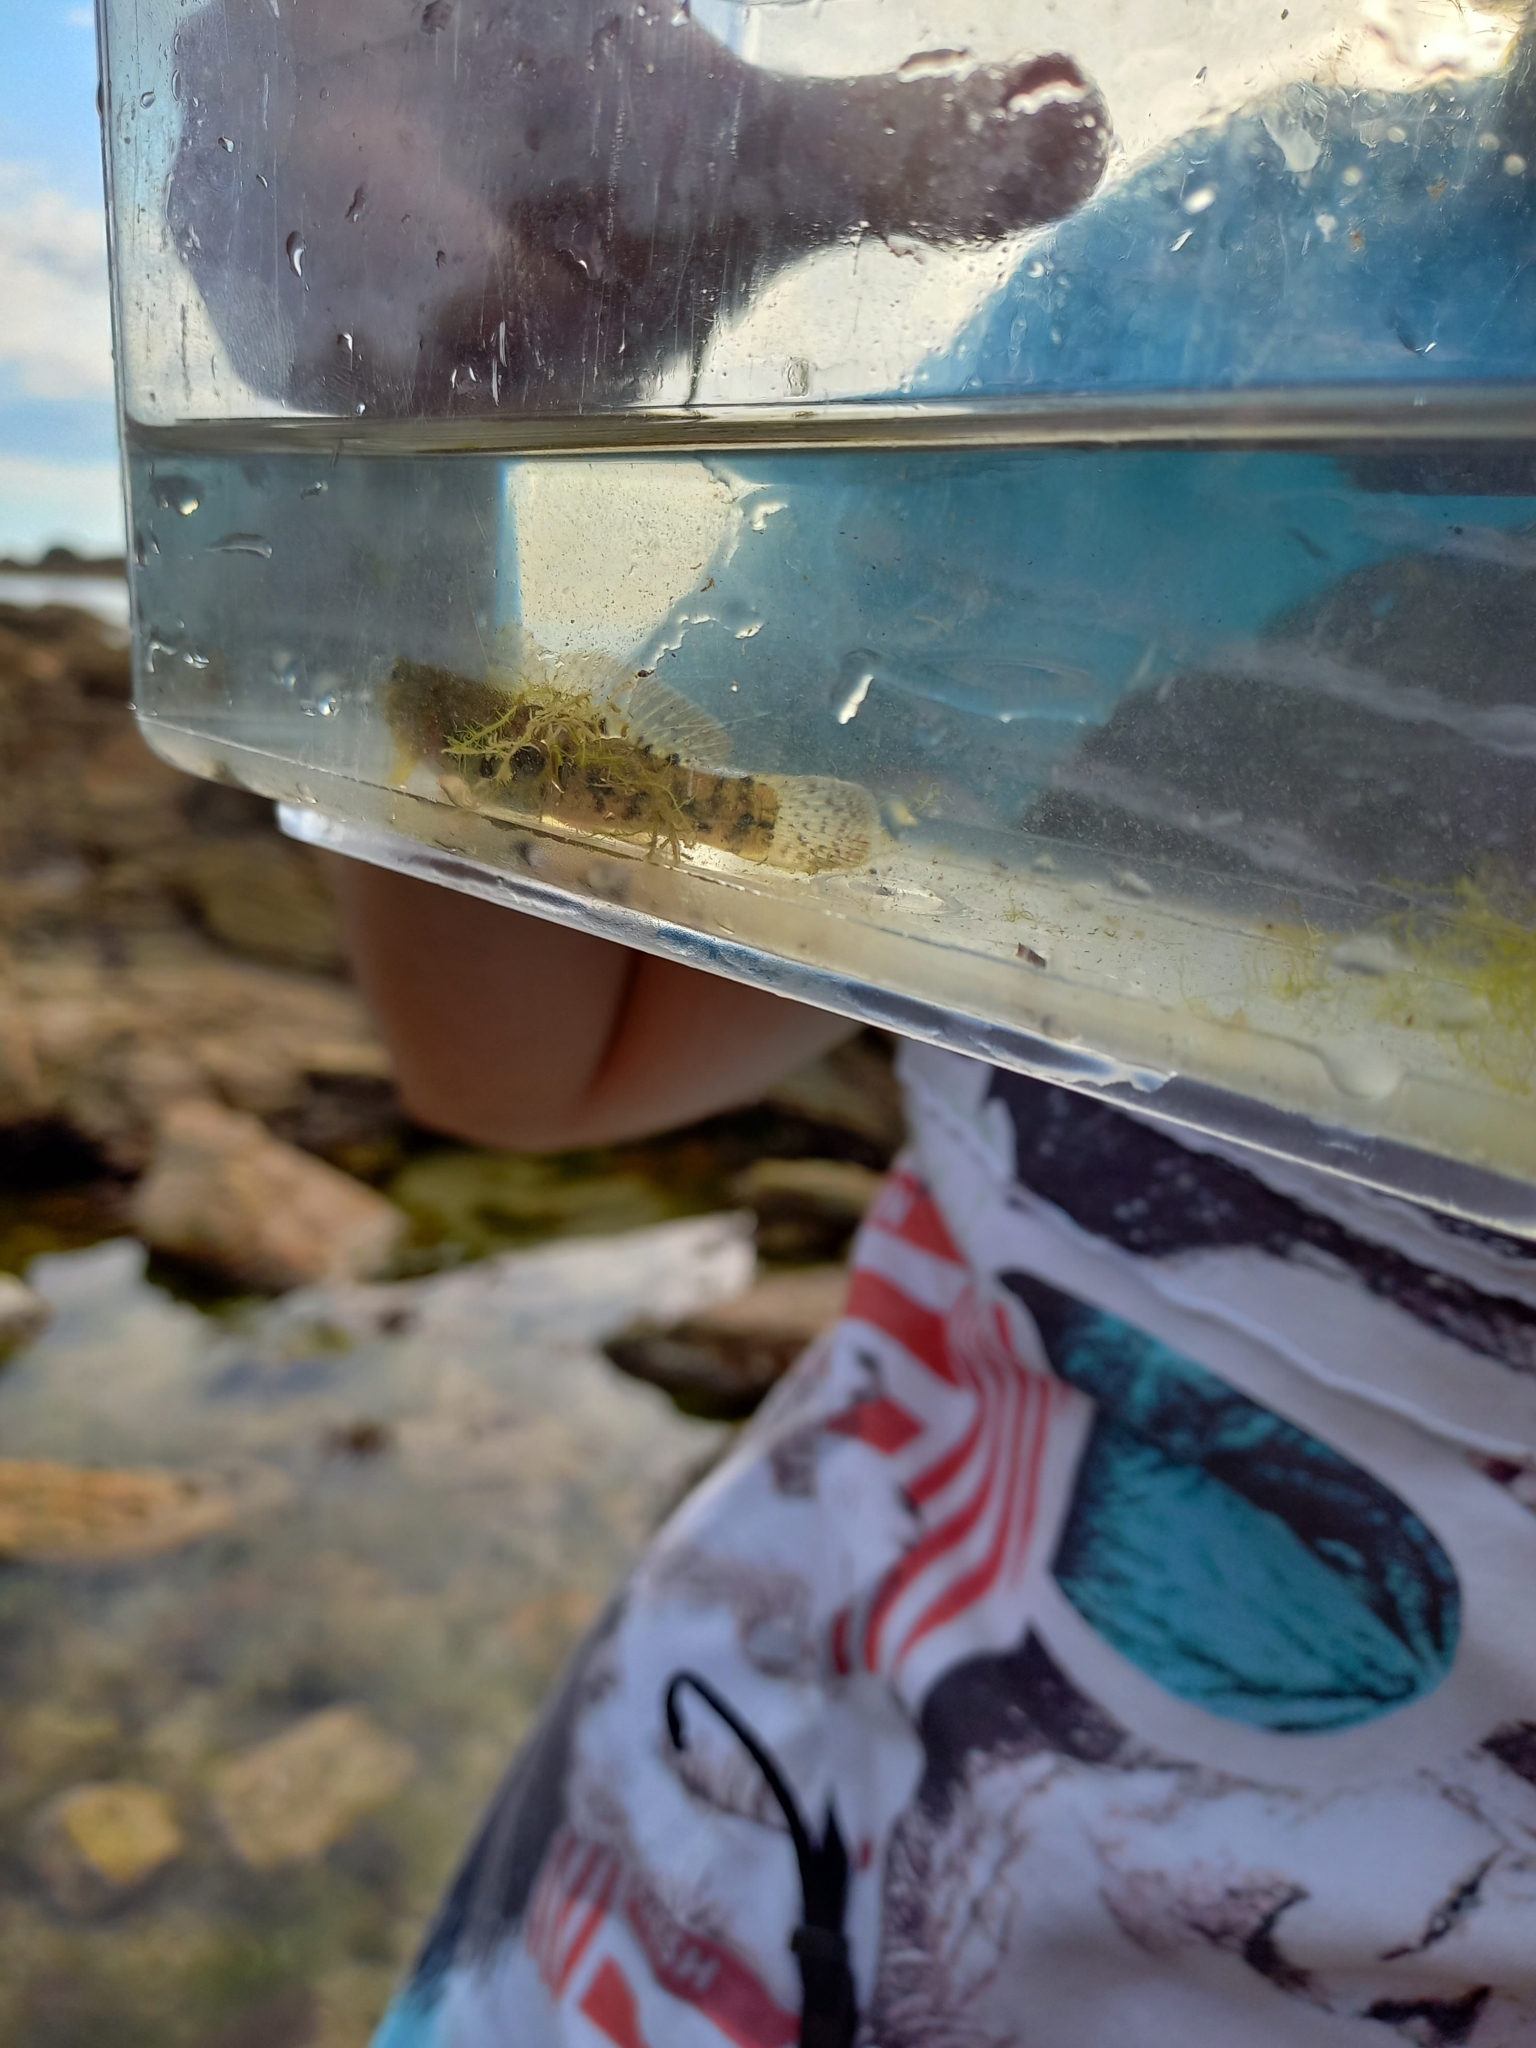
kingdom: Animalia
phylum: Chordata
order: Perciformes
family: Gobiidae
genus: Gobius
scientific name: Gobius cobitis
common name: Giant goby
